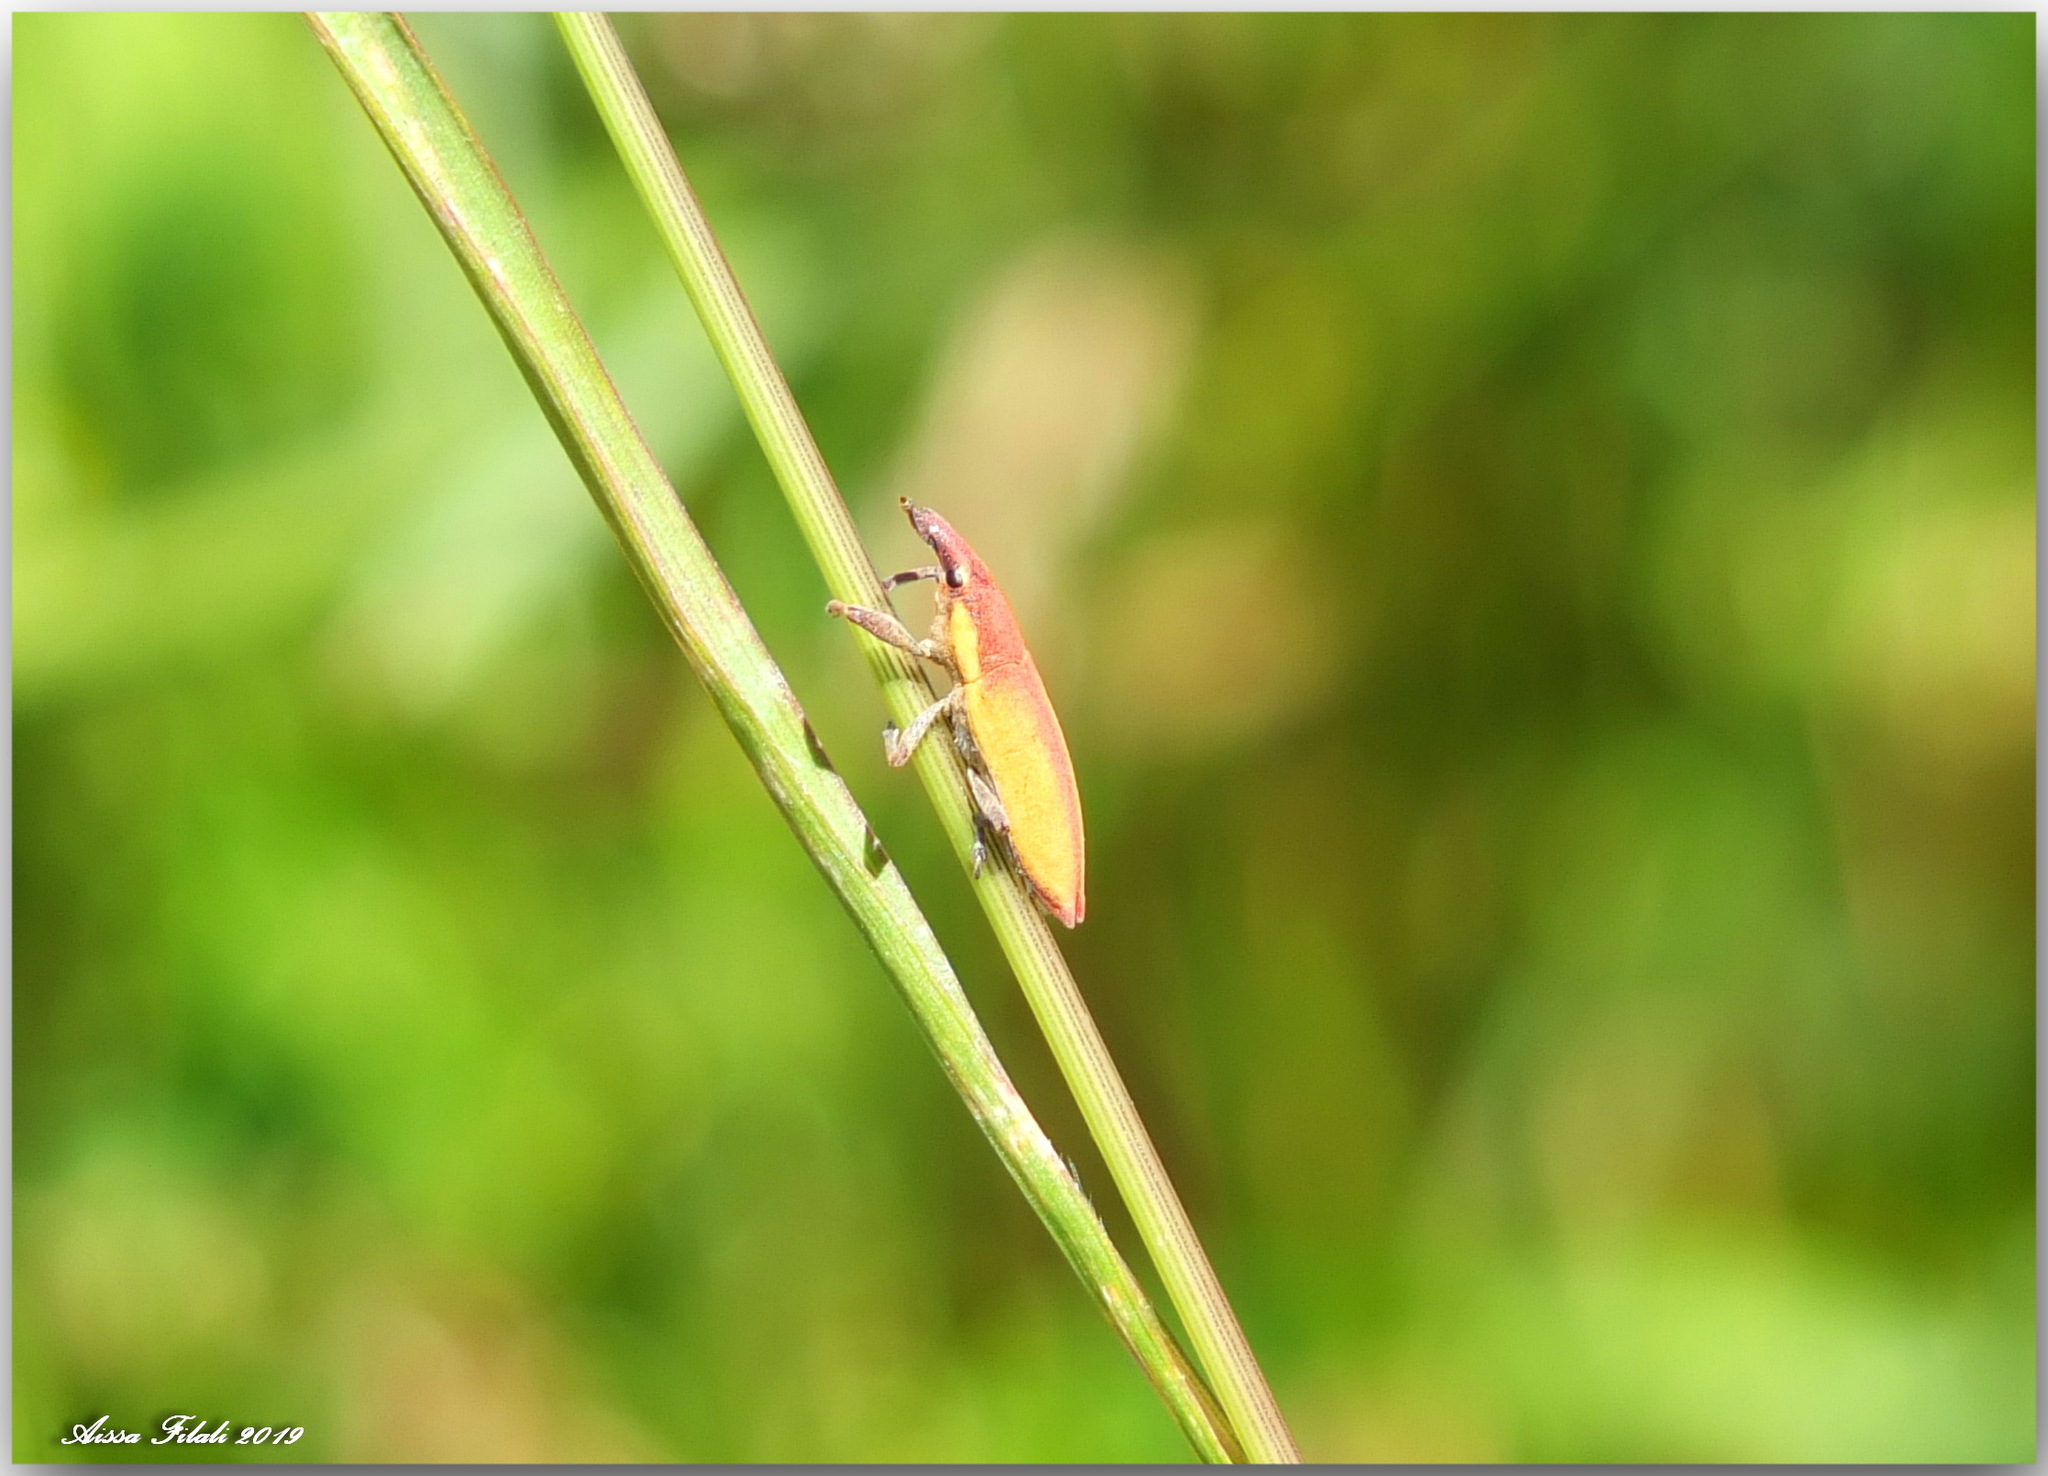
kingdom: Animalia
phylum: Arthropoda
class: Insecta
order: Coleoptera
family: Curculionidae
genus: Lixus
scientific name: Lixus acicularis
